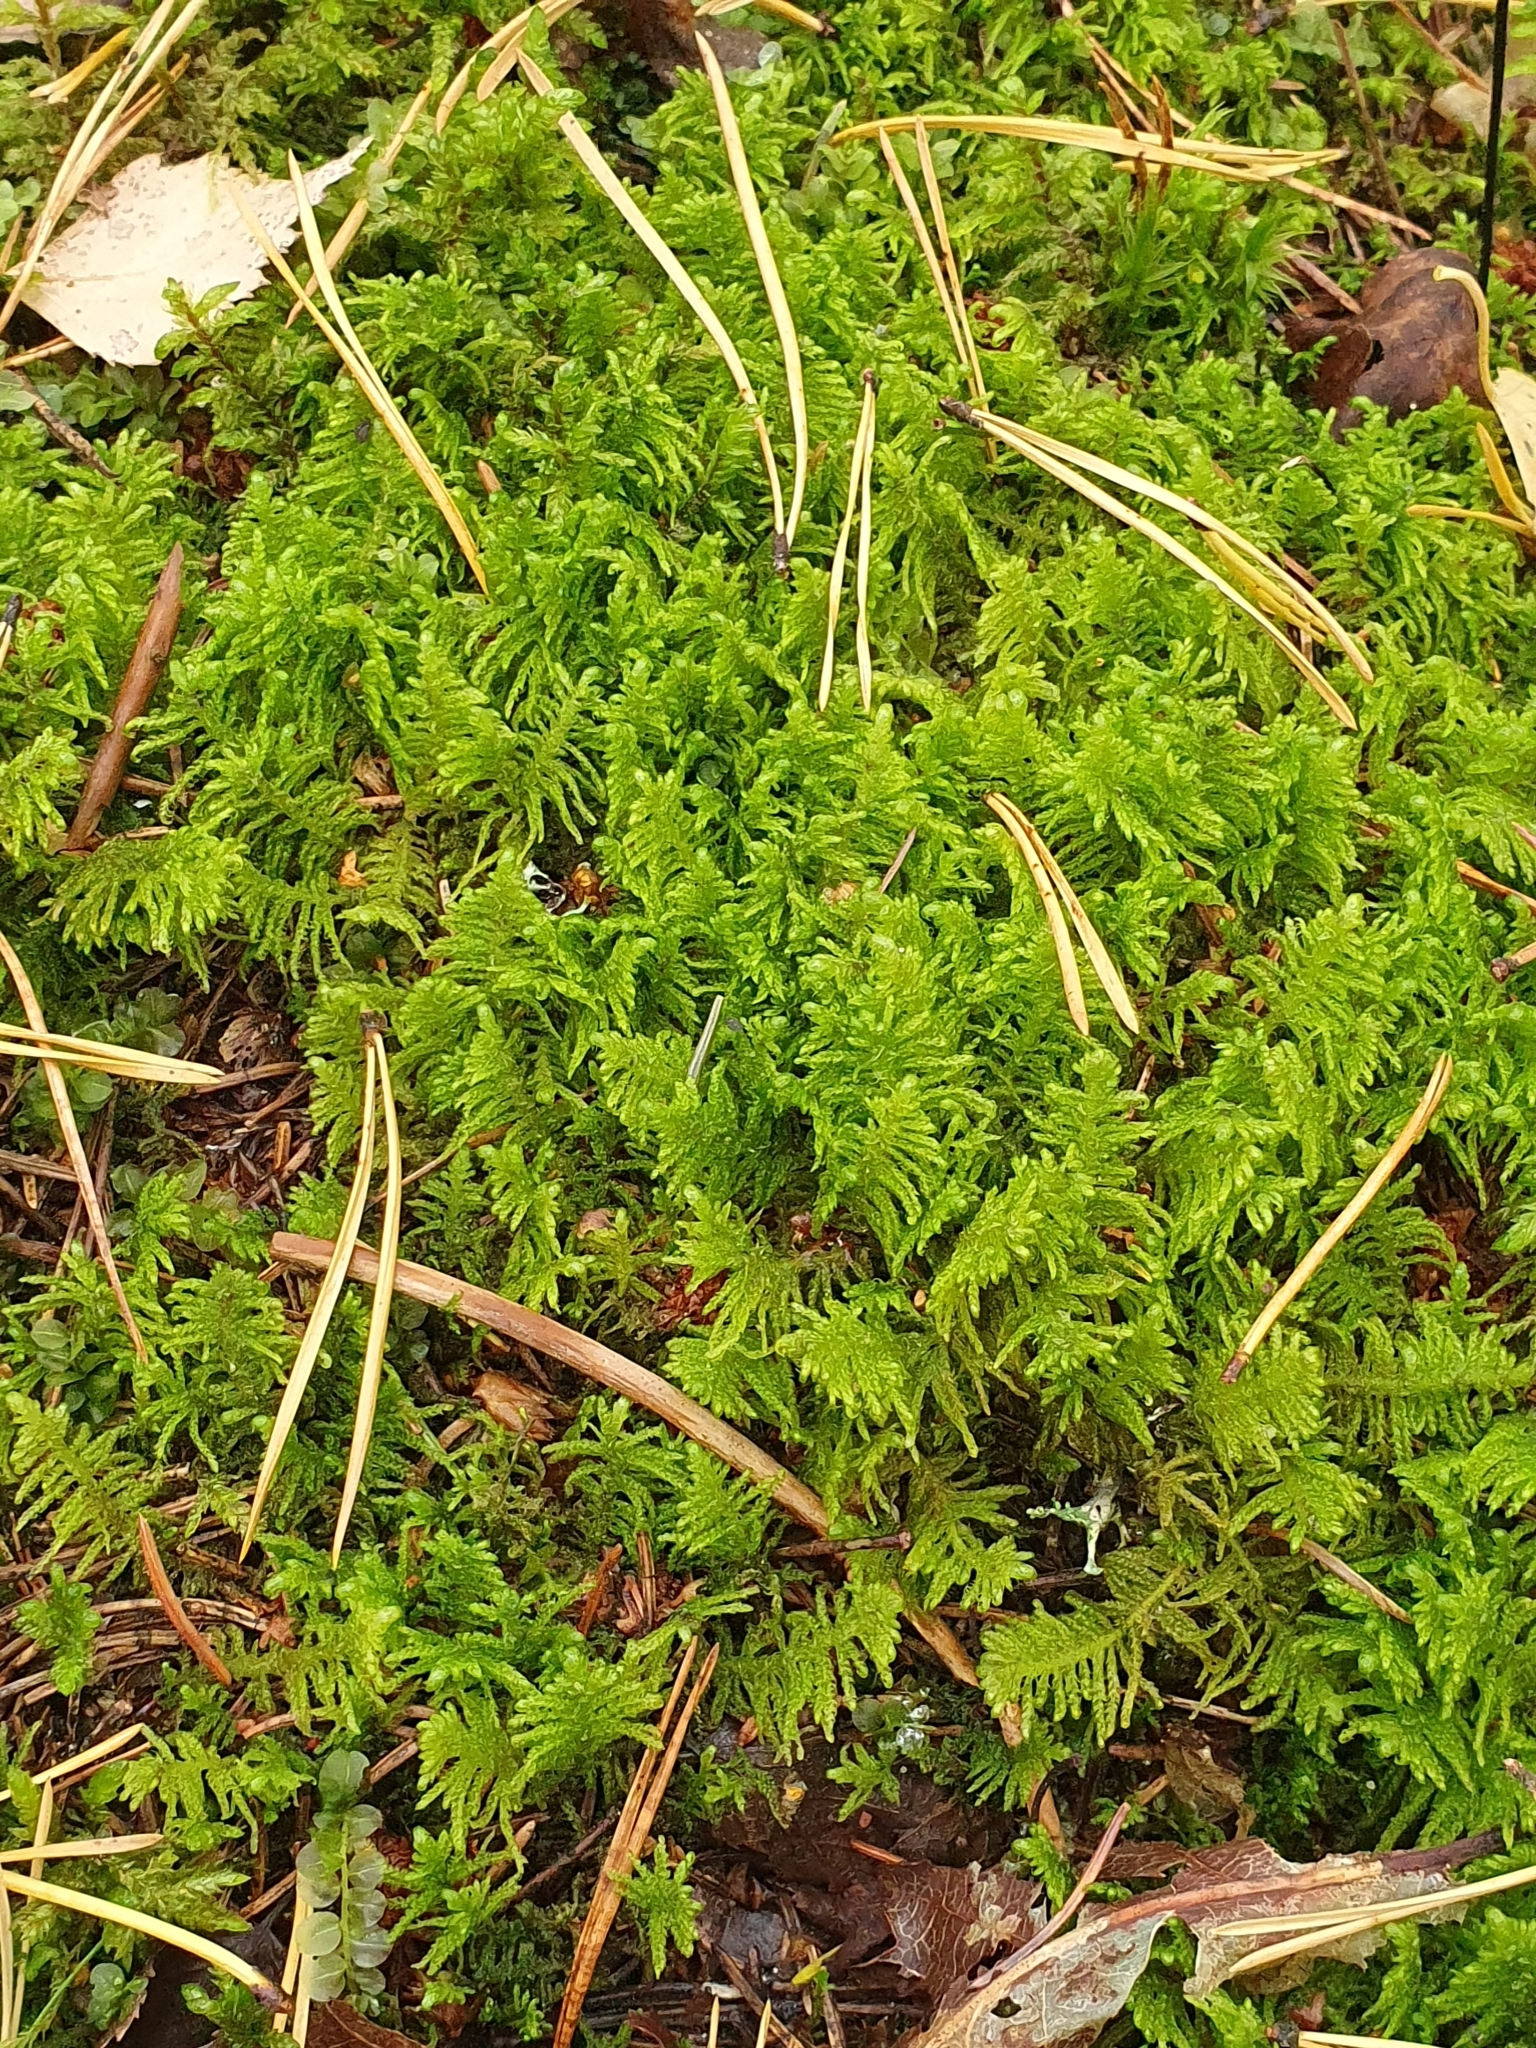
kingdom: Plantae
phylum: Bryophyta
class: Bryopsida
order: Hypnales
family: Pylaisiaceae
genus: Ptilium
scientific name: Ptilium crista-castrensis
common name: Knight's plume moss
